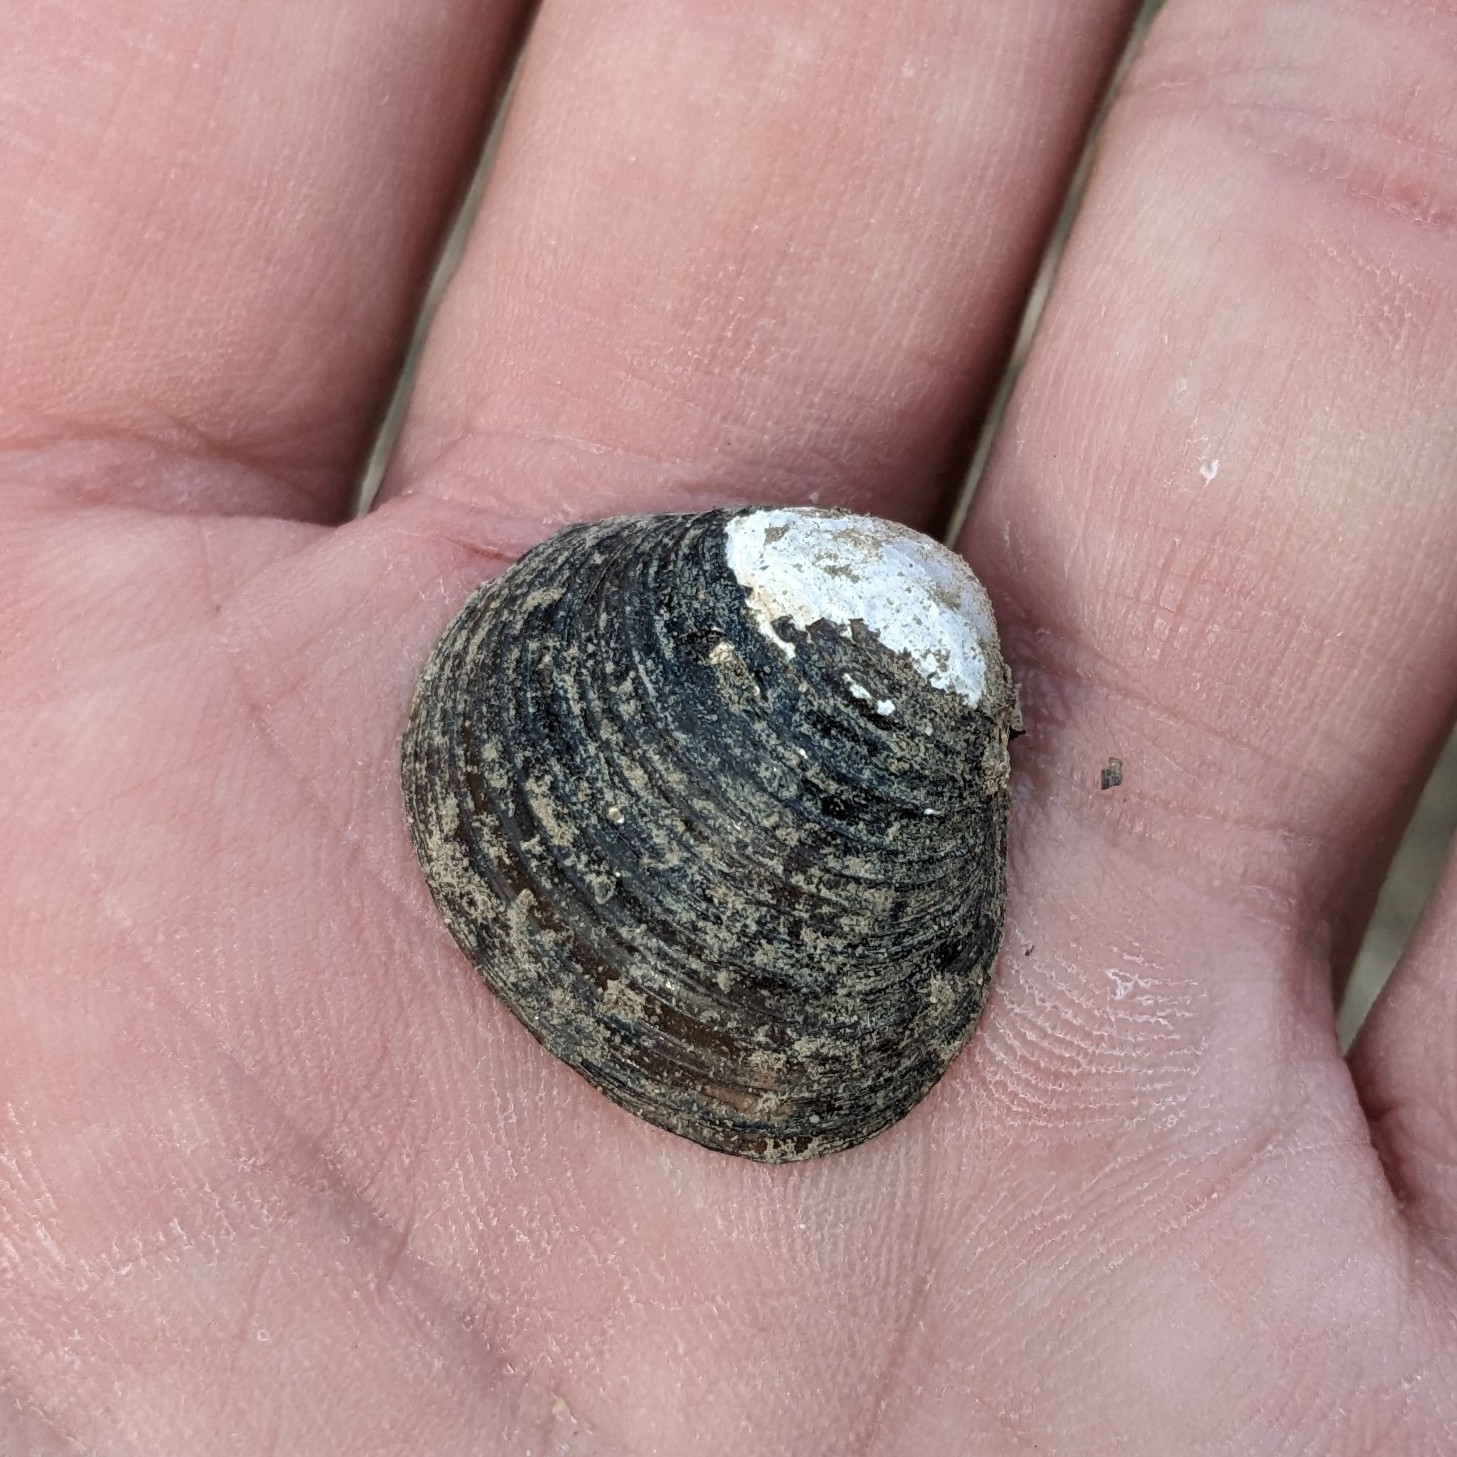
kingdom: Animalia
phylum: Mollusca
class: Bivalvia
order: Venerida
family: Cyrenidae
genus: Corbicula
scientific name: Corbicula fluminea
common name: Asian clam
